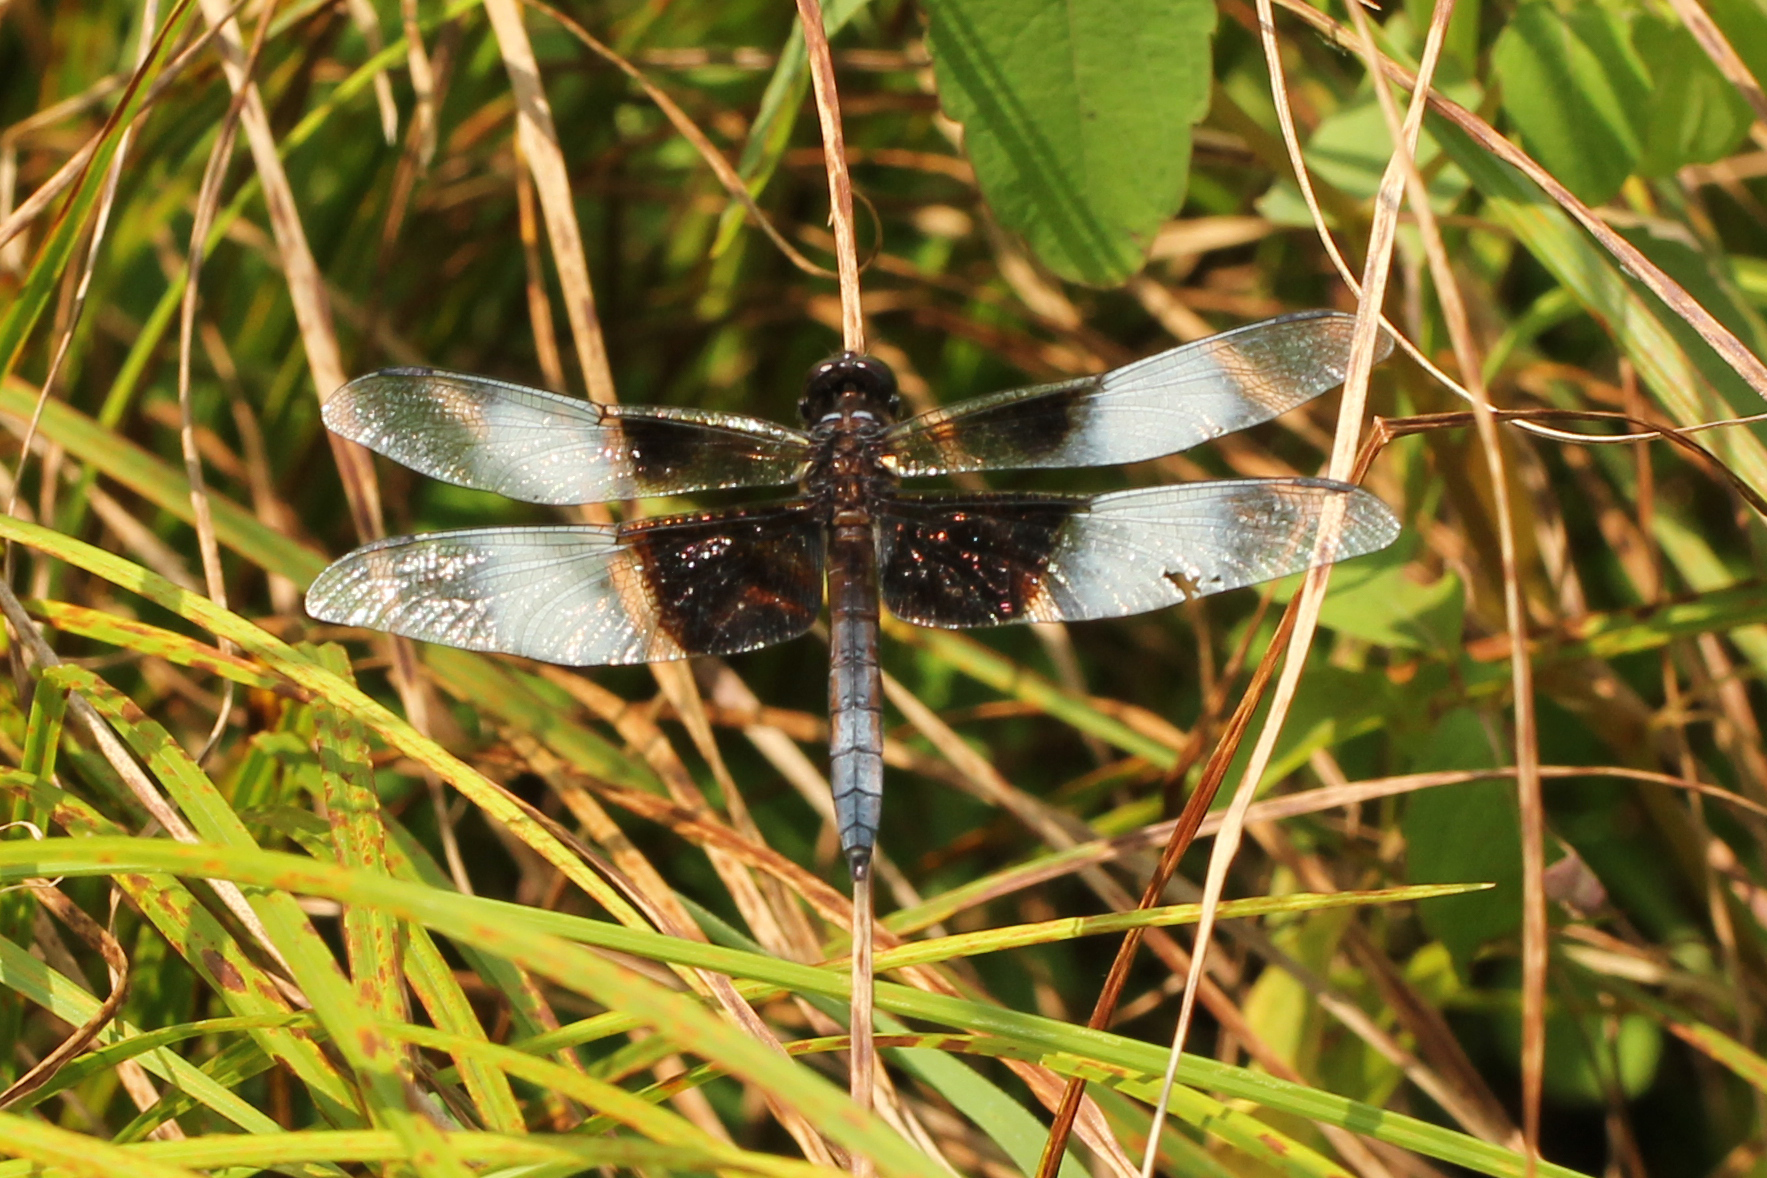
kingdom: Animalia
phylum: Arthropoda
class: Insecta
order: Odonata
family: Libellulidae
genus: Libellula
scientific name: Libellula luctuosa
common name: Widow skimmer
